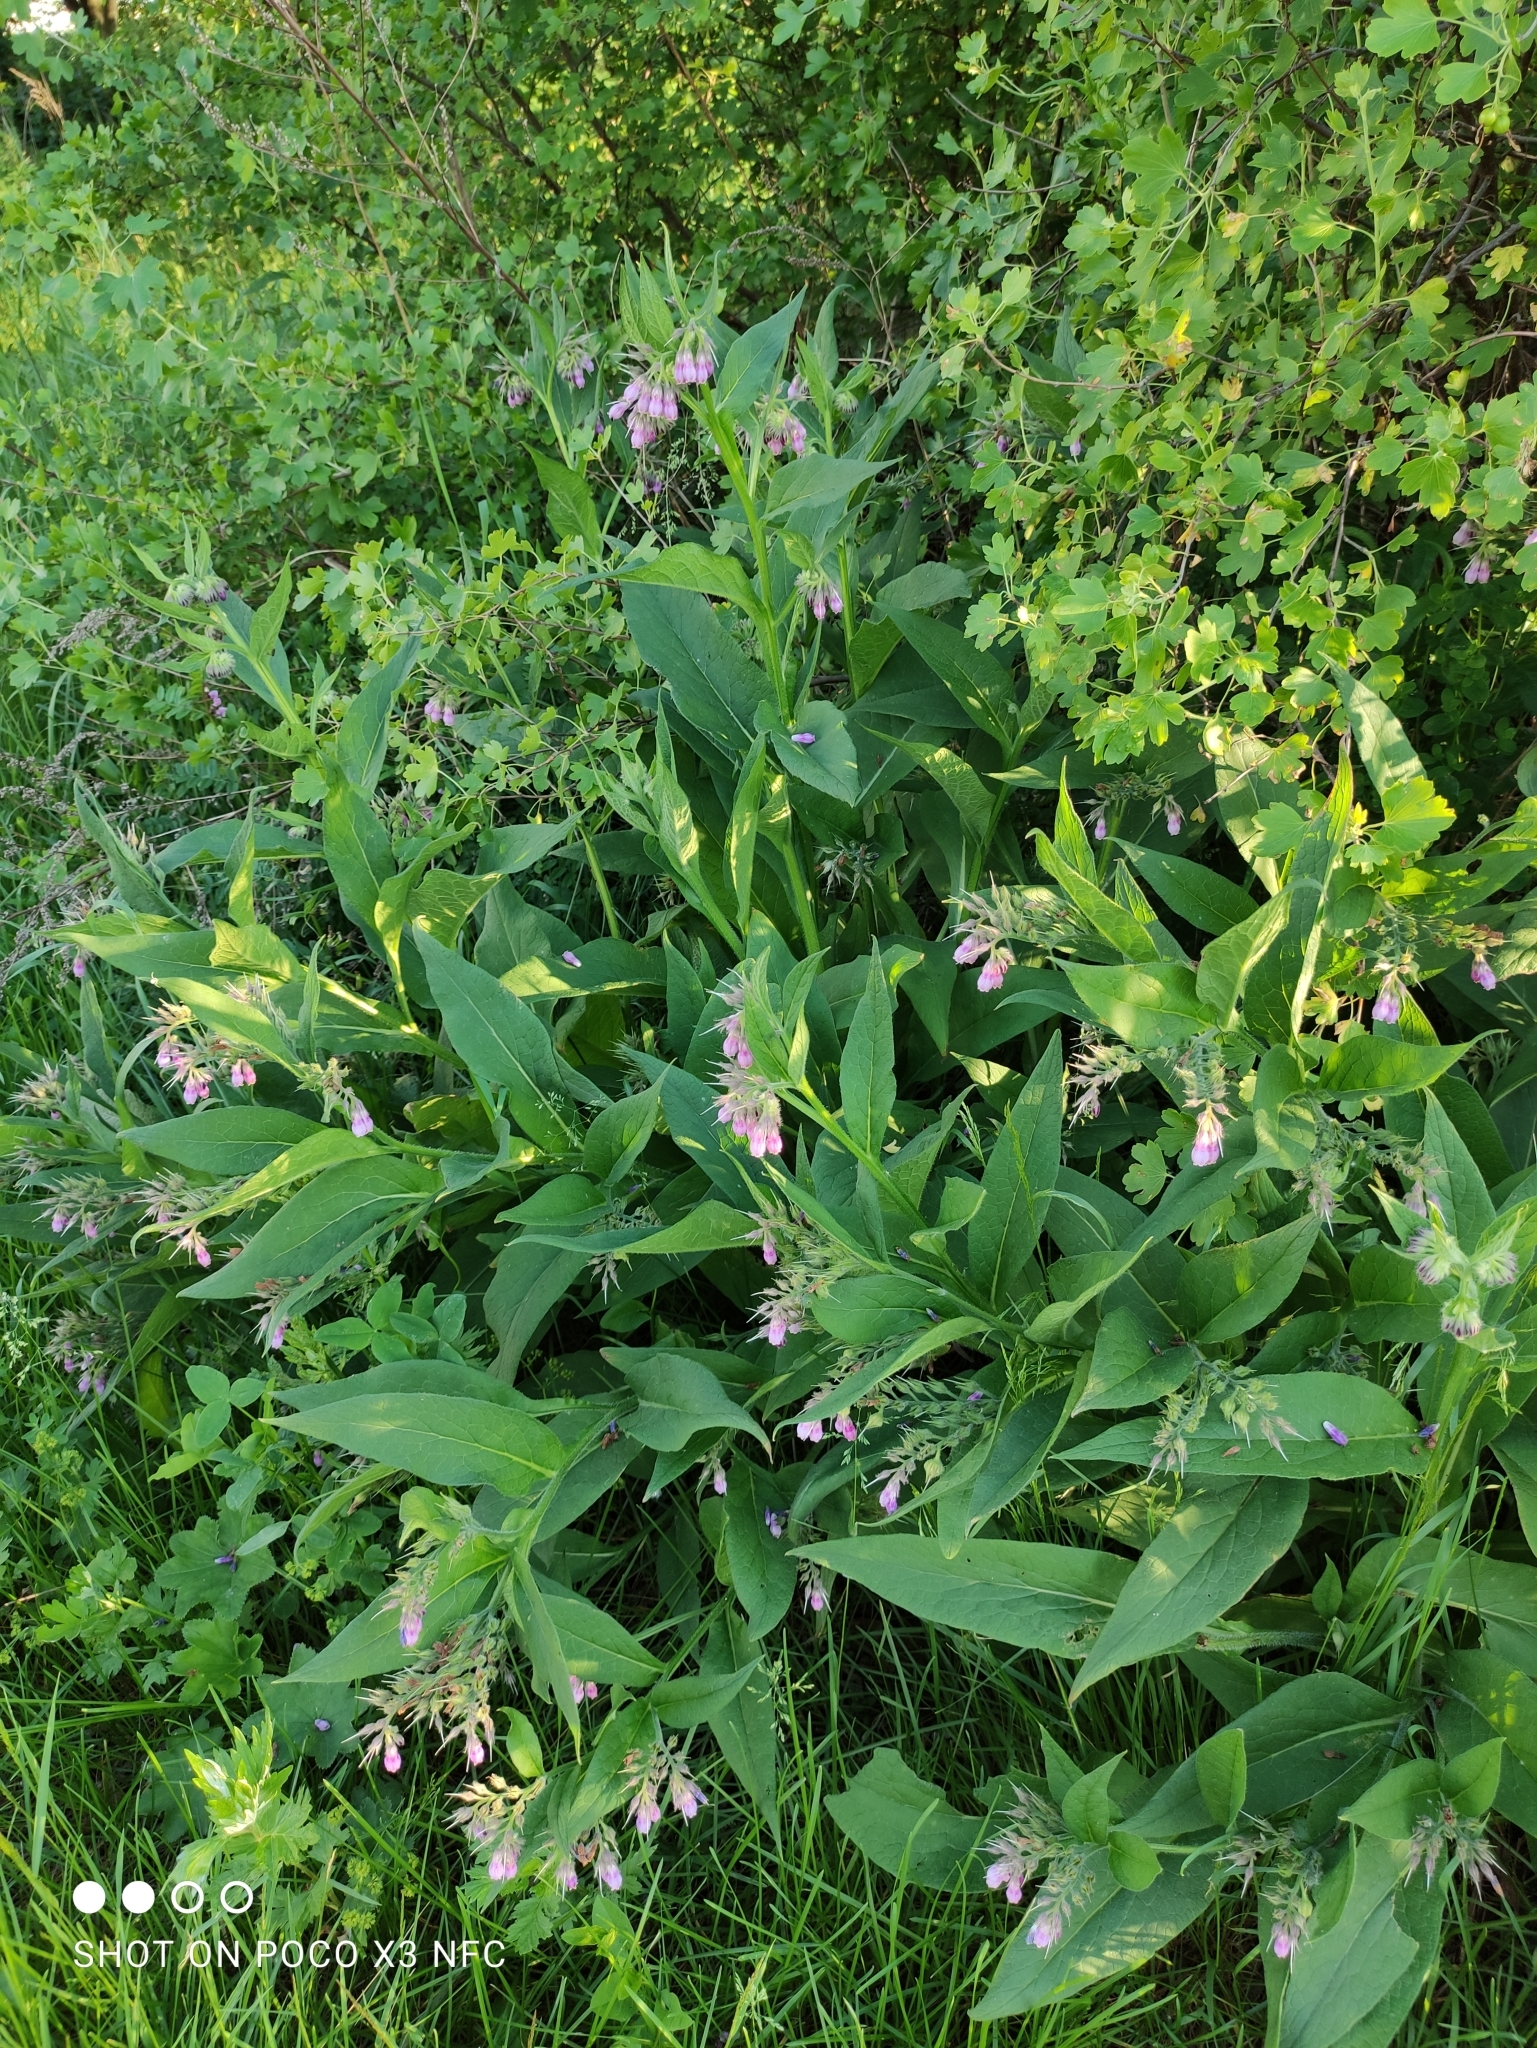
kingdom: Plantae
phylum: Tracheophyta
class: Magnoliopsida
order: Boraginales
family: Boraginaceae
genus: Symphytum
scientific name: Symphytum uplandicum
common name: Russian comfrey
